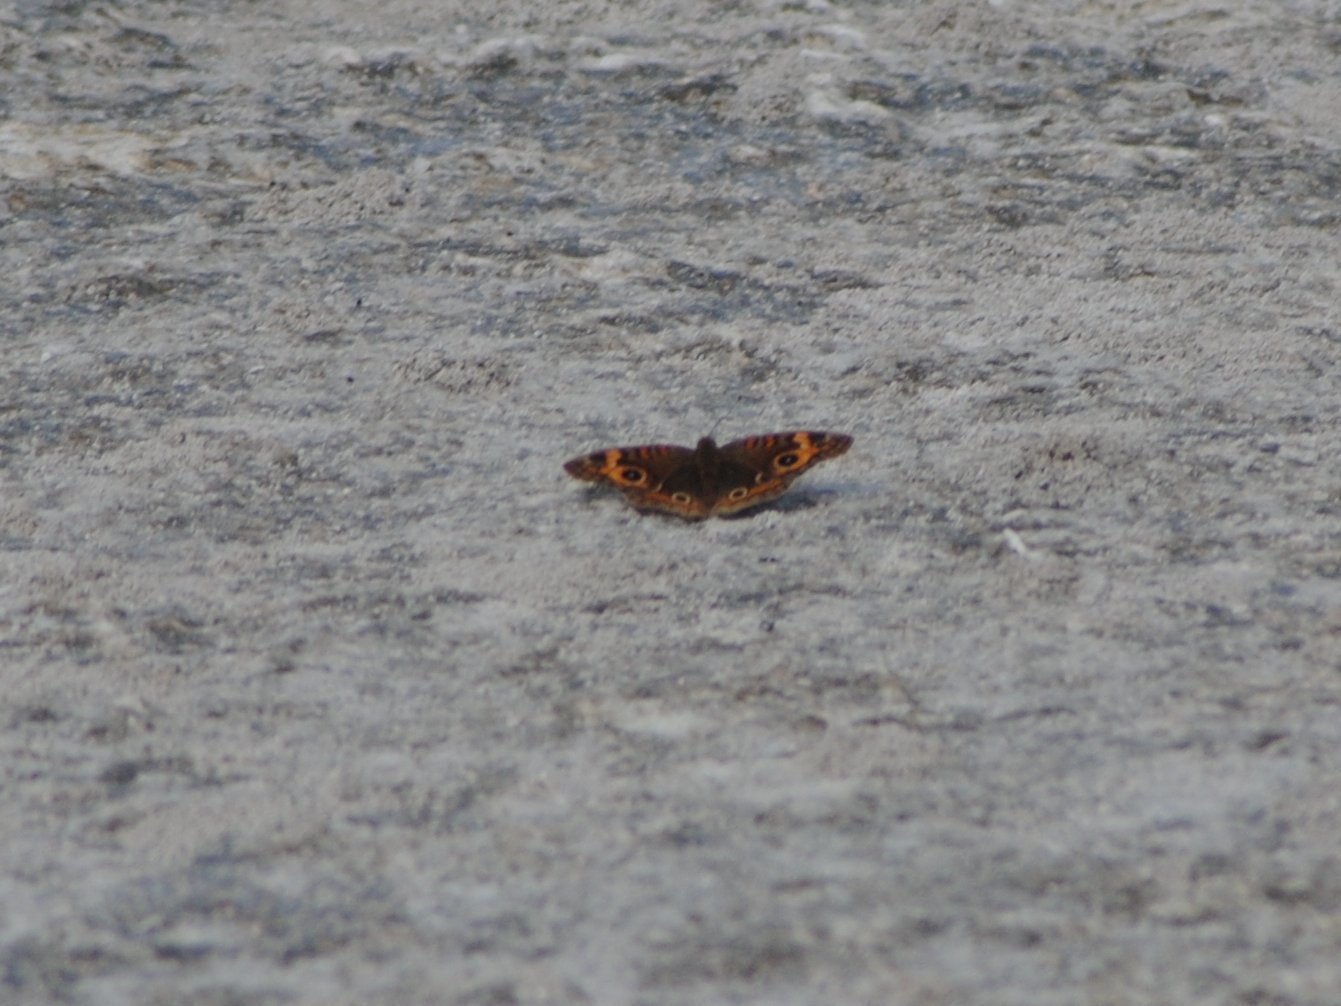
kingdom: Animalia
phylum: Arthropoda
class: Insecta
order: Lepidoptera
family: Nymphalidae
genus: Junonia
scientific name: Junonia neildi
